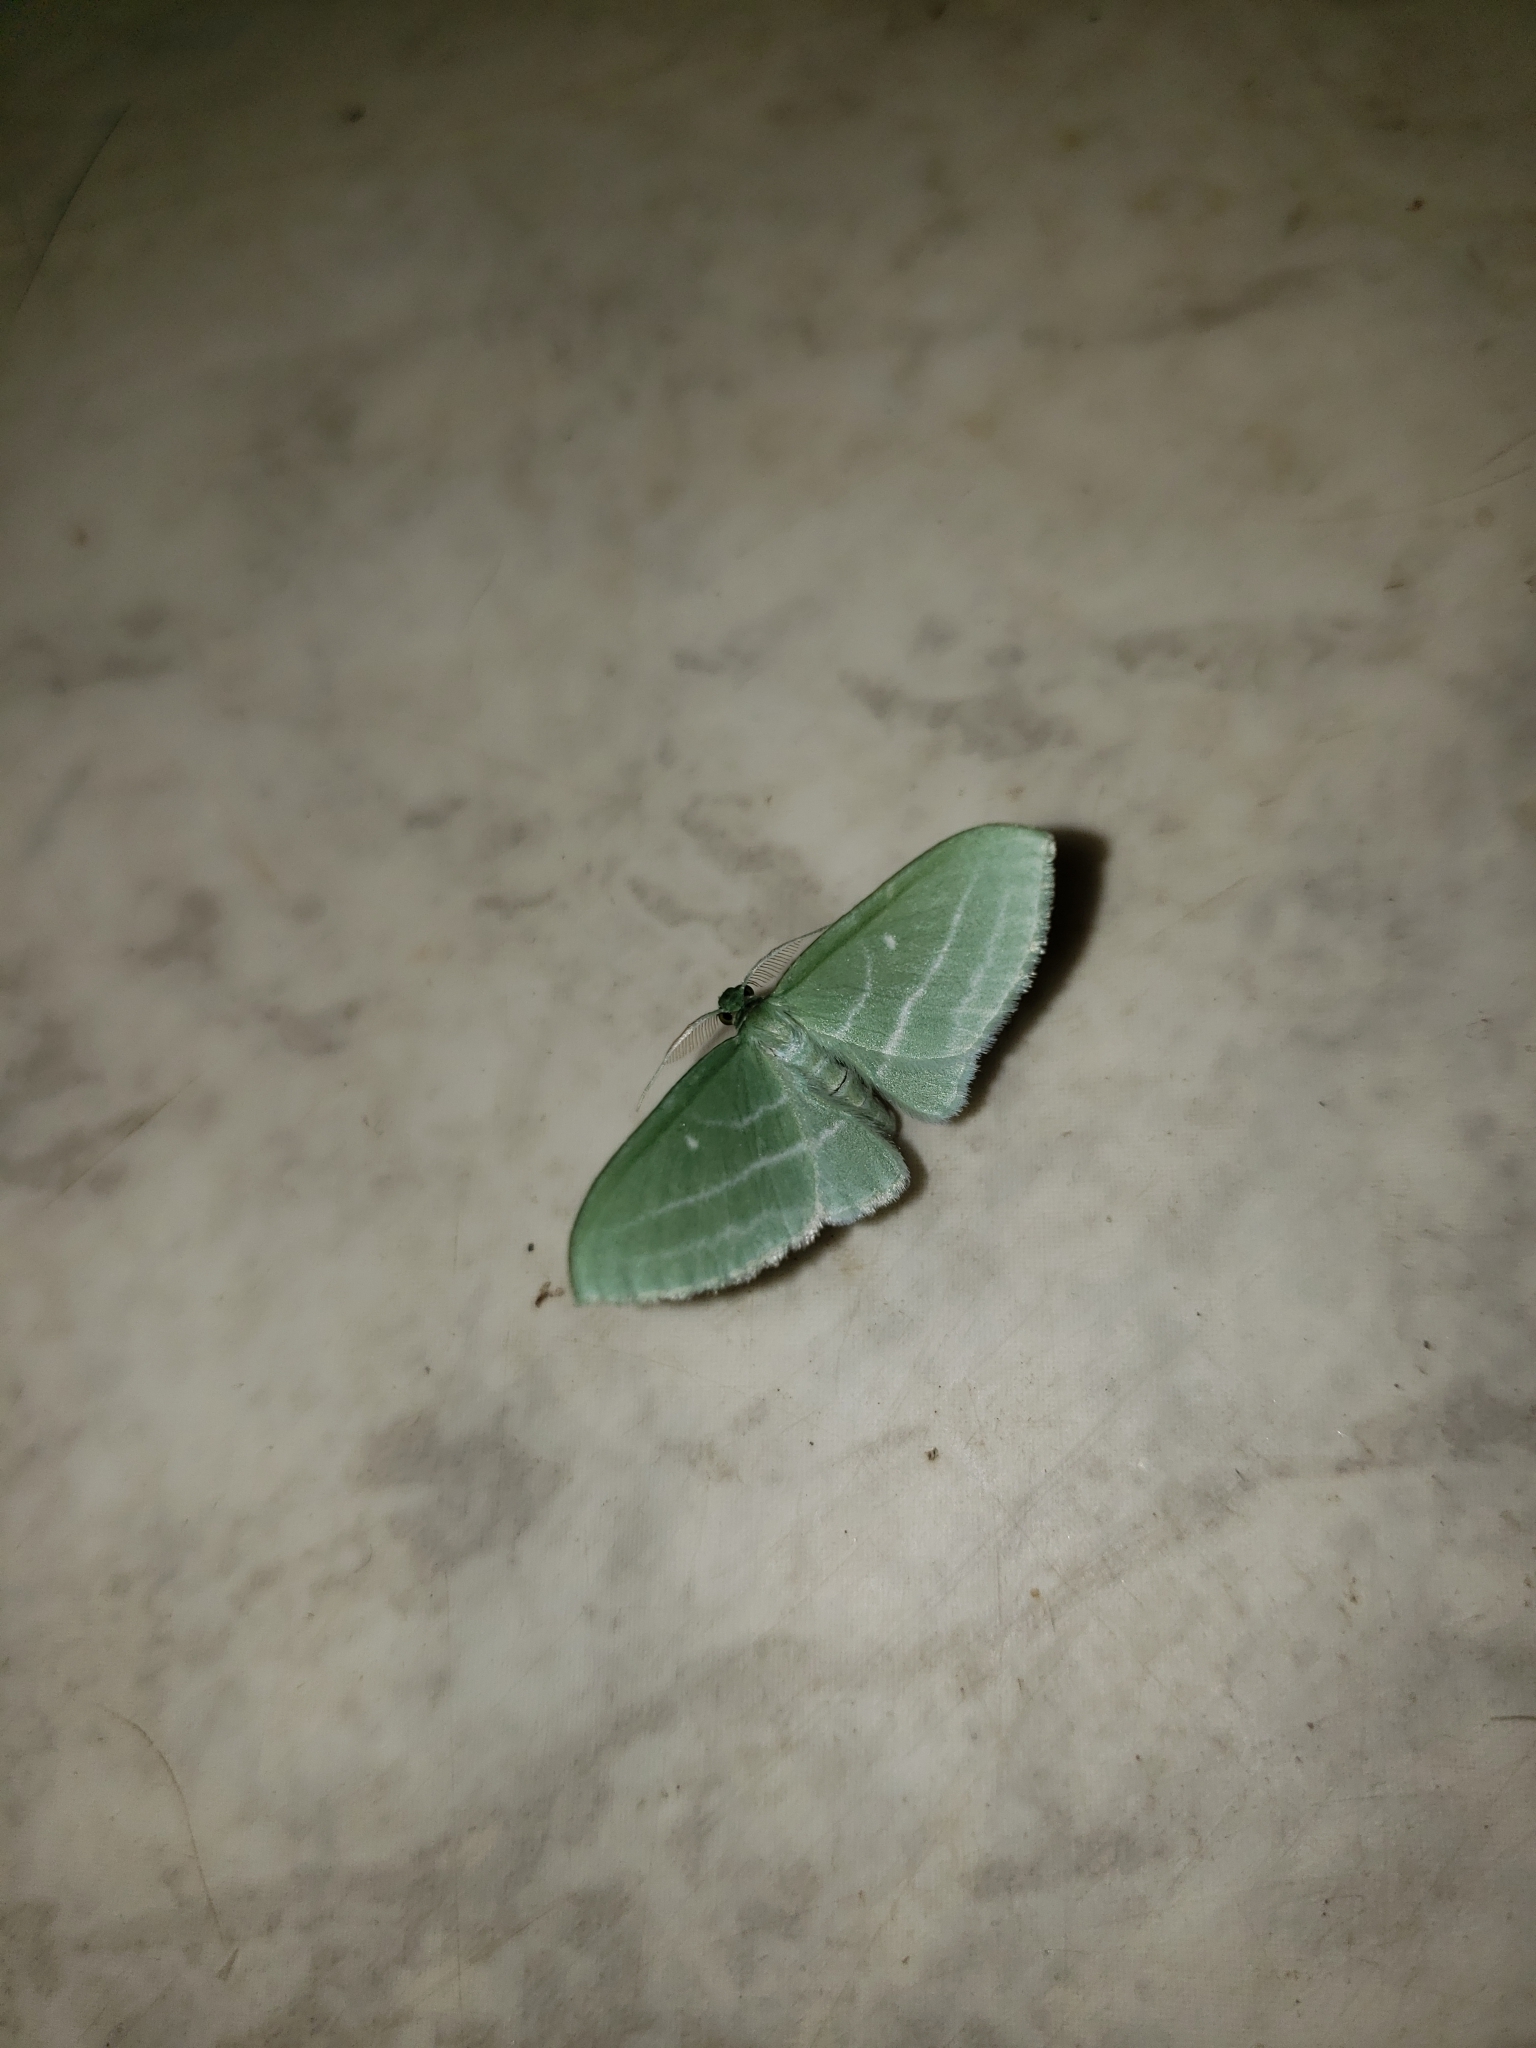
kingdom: Animalia
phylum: Arthropoda
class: Insecta
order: Lepidoptera
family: Geometridae
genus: Dyspteris
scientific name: Dyspteris abortivaria
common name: Bad-wing
